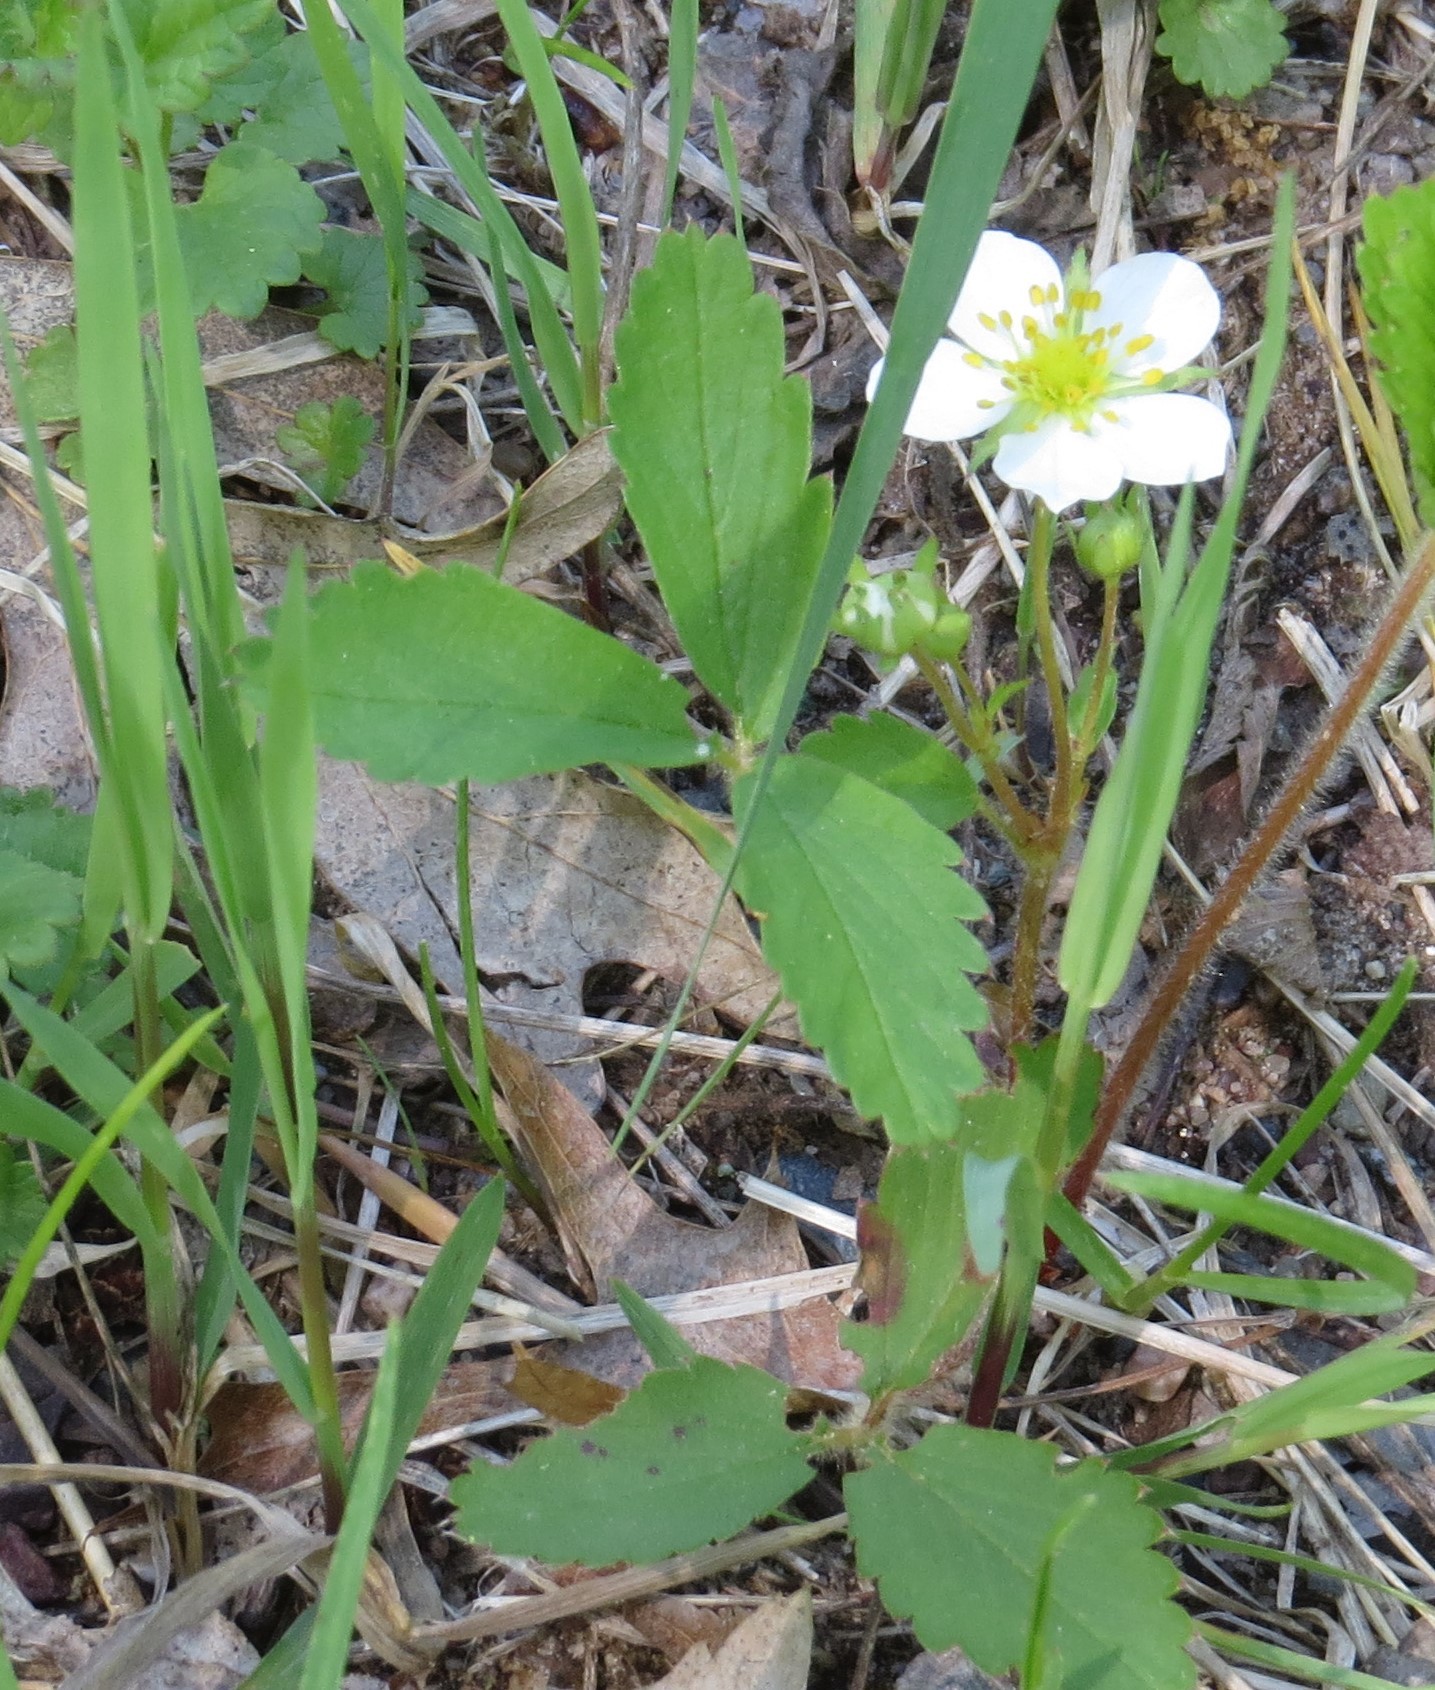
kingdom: Plantae
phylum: Tracheophyta
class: Magnoliopsida
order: Rosales
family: Rosaceae
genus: Fragaria
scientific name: Fragaria virginiana
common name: Thickleaved wild strawberry
